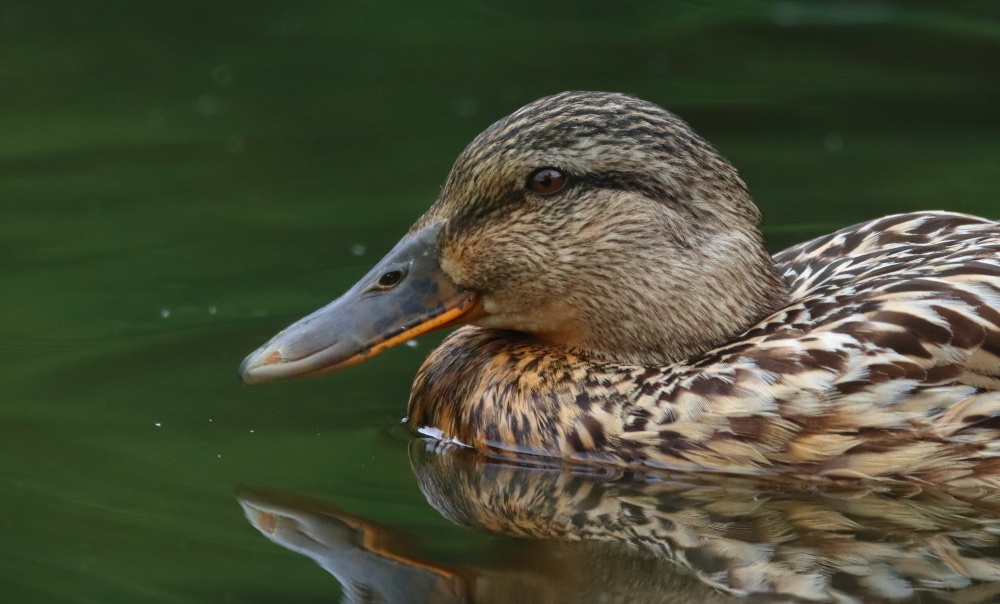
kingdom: Animalia
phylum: Chordata
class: Aves
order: Anseriformes
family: Anatidae
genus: Anas
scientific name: Anas platyrhynchos
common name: Mallard
